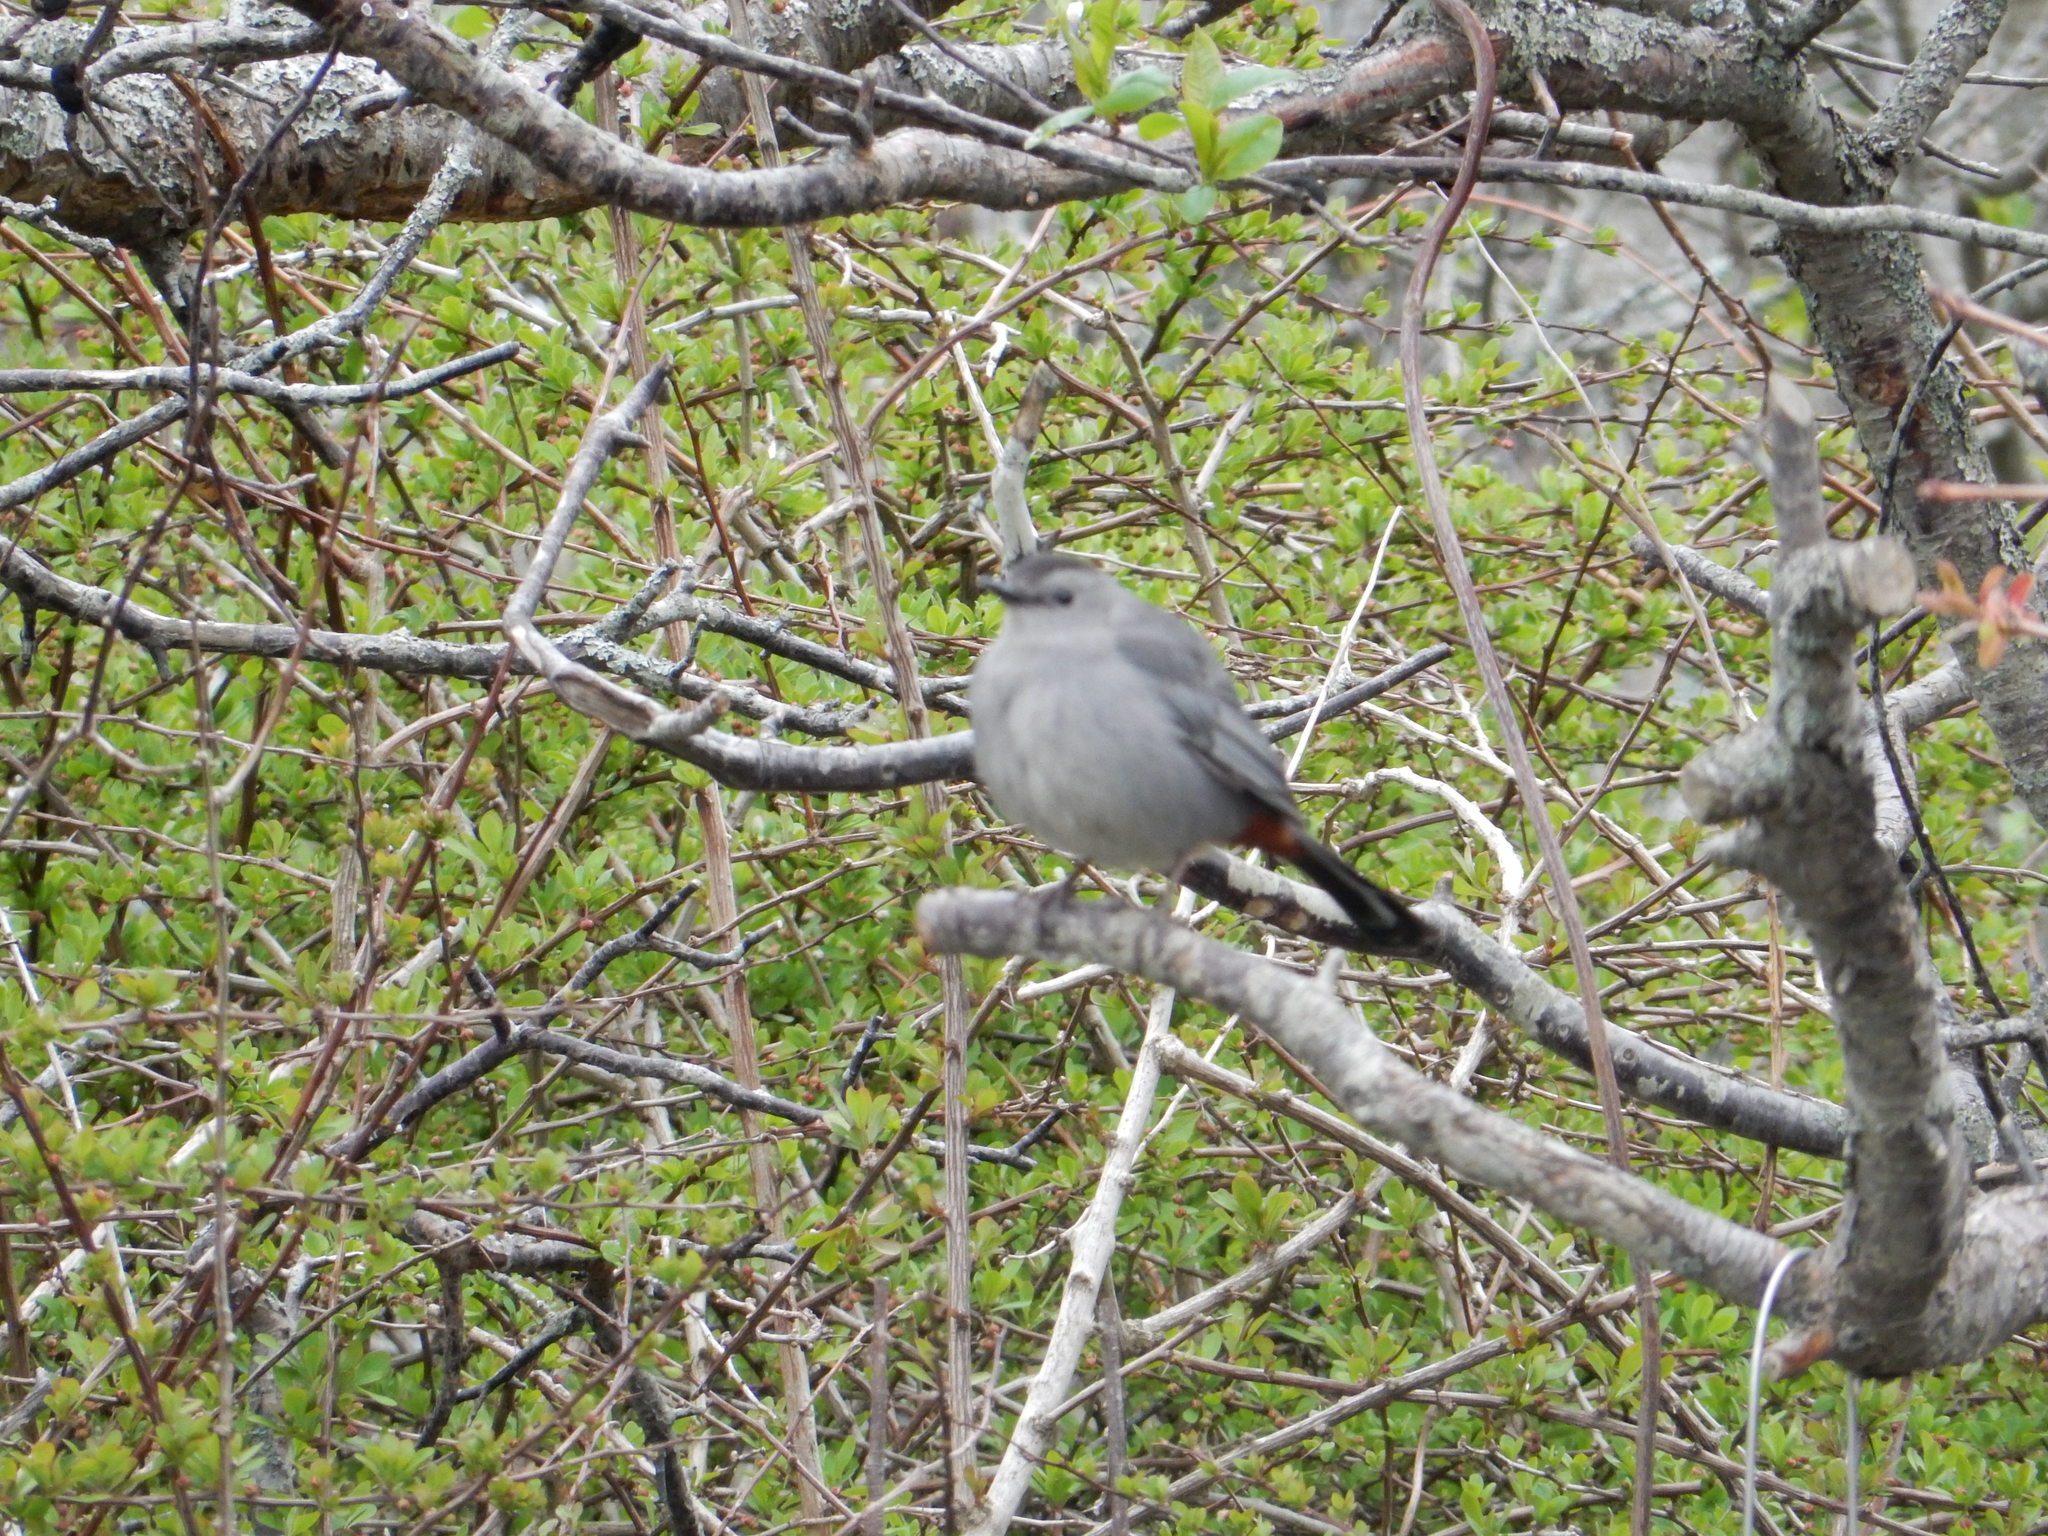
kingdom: Animalia
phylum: Chordata
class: Aves
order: Passeriformes
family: Mimidae
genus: Dumetella
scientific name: Dumetella carolinensis
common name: Gray catbird
